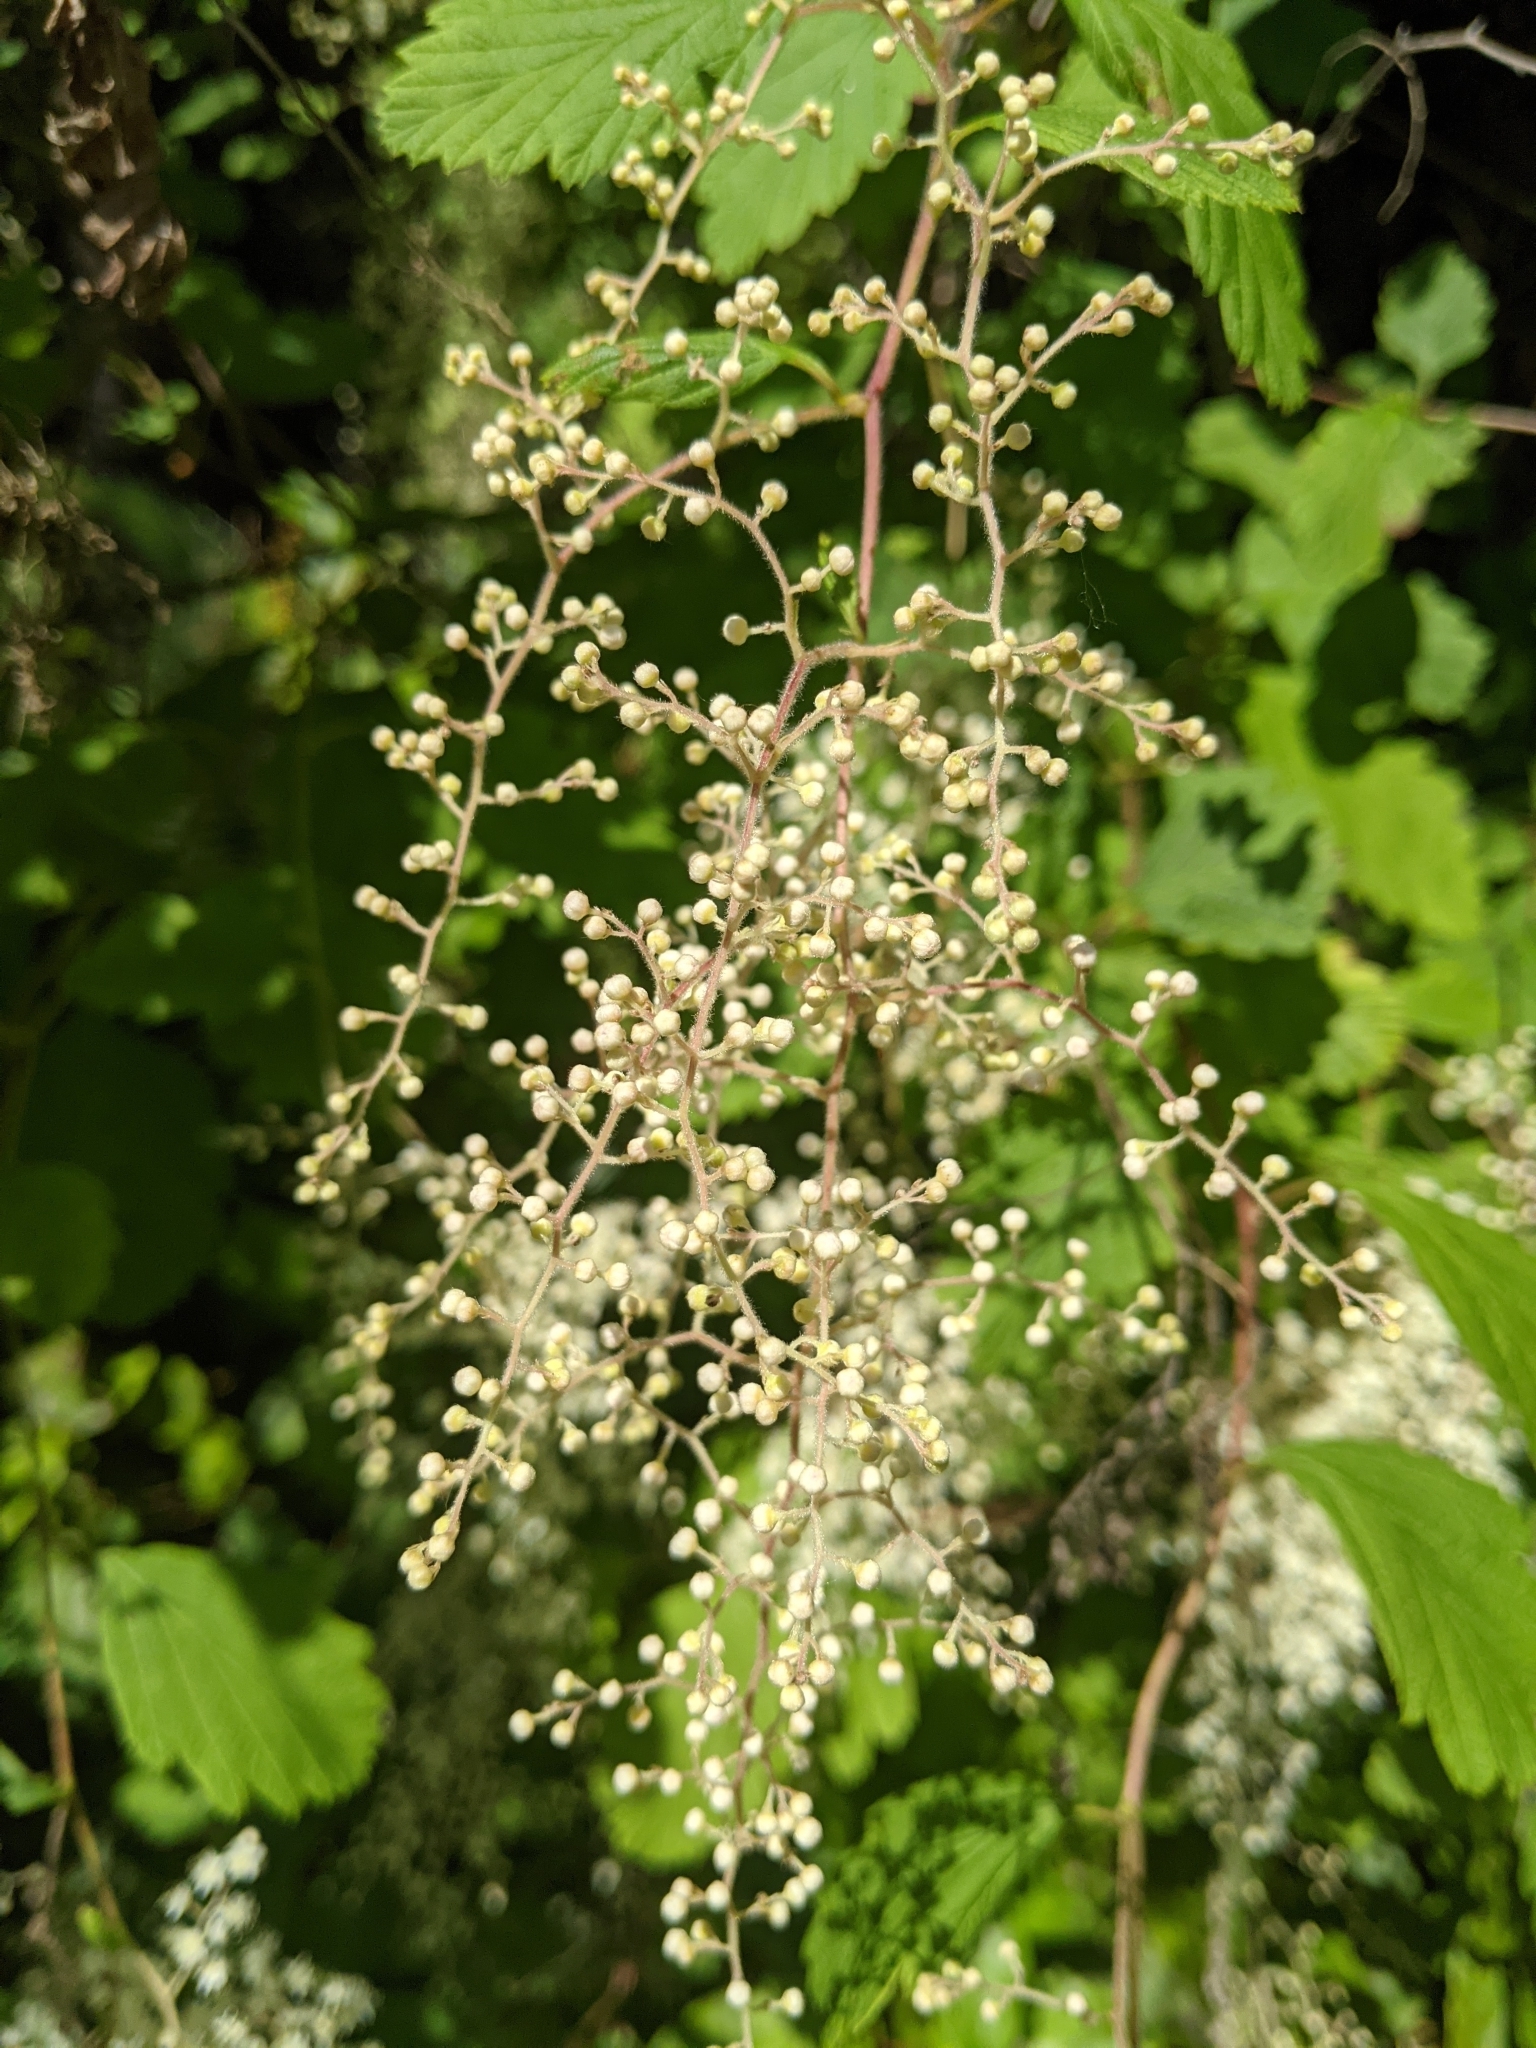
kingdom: Plantae
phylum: Tracheophyta
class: Magnoliopsida
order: Rosales
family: Rosaceae
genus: Holodiscus
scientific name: Holodiscus discolor
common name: Oceanspray
